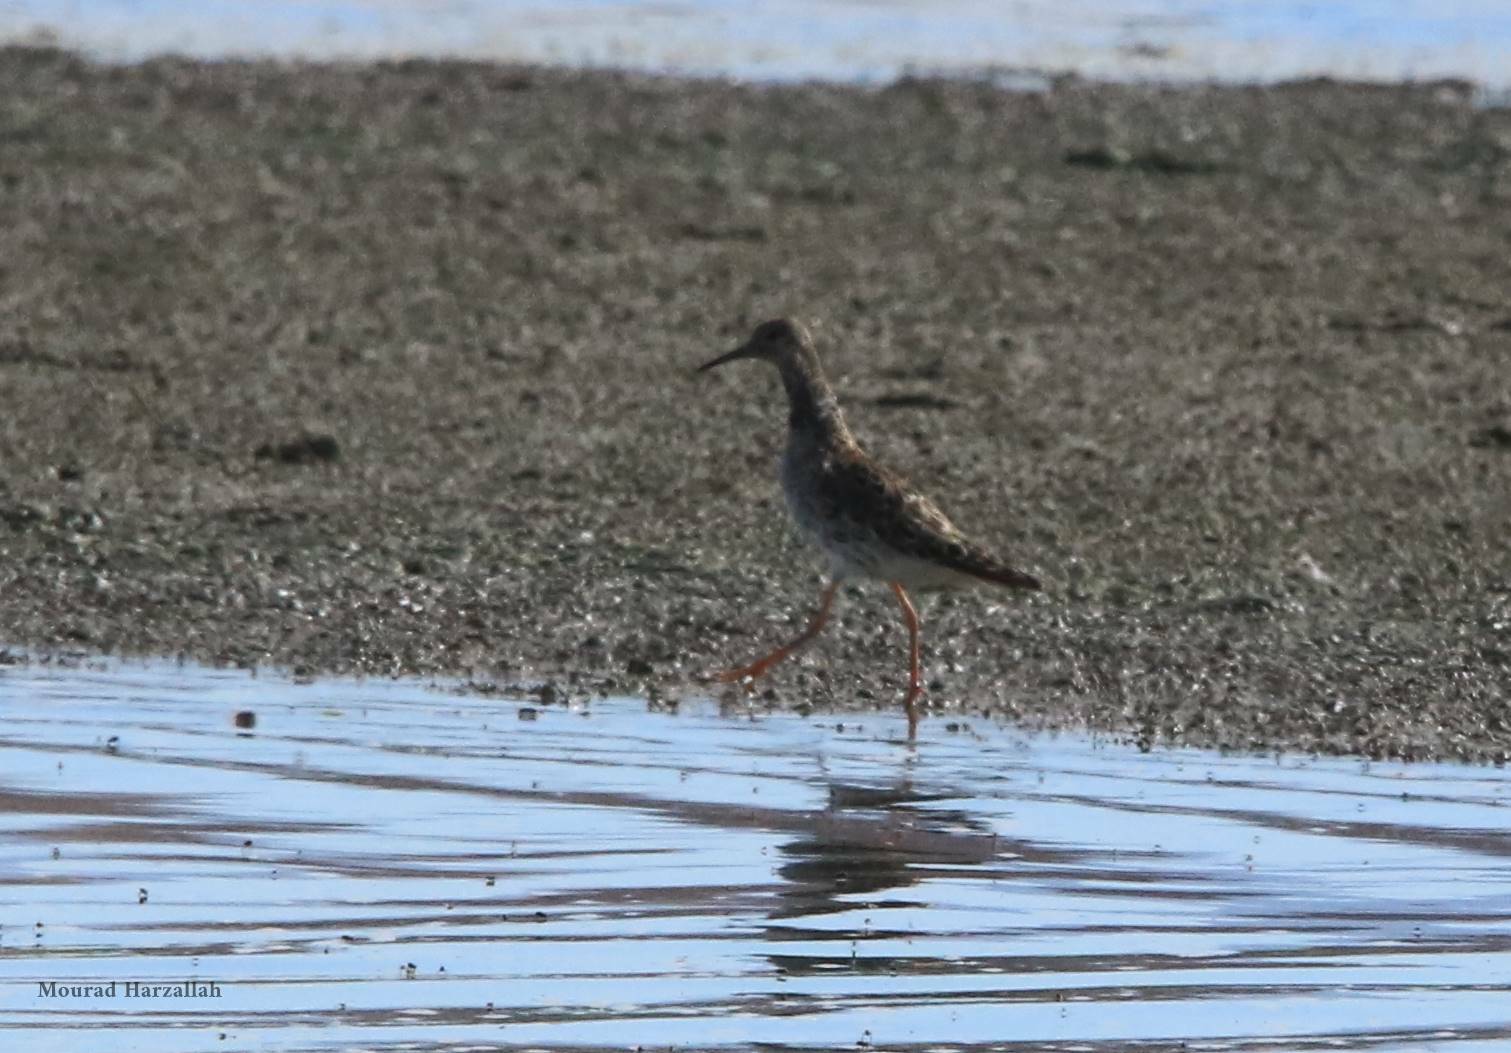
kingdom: Animalia
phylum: Chordata
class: Aves
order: Charadriiformes
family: Scolopacidae
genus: Calidris
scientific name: Calidris pugnax
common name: Ruff
